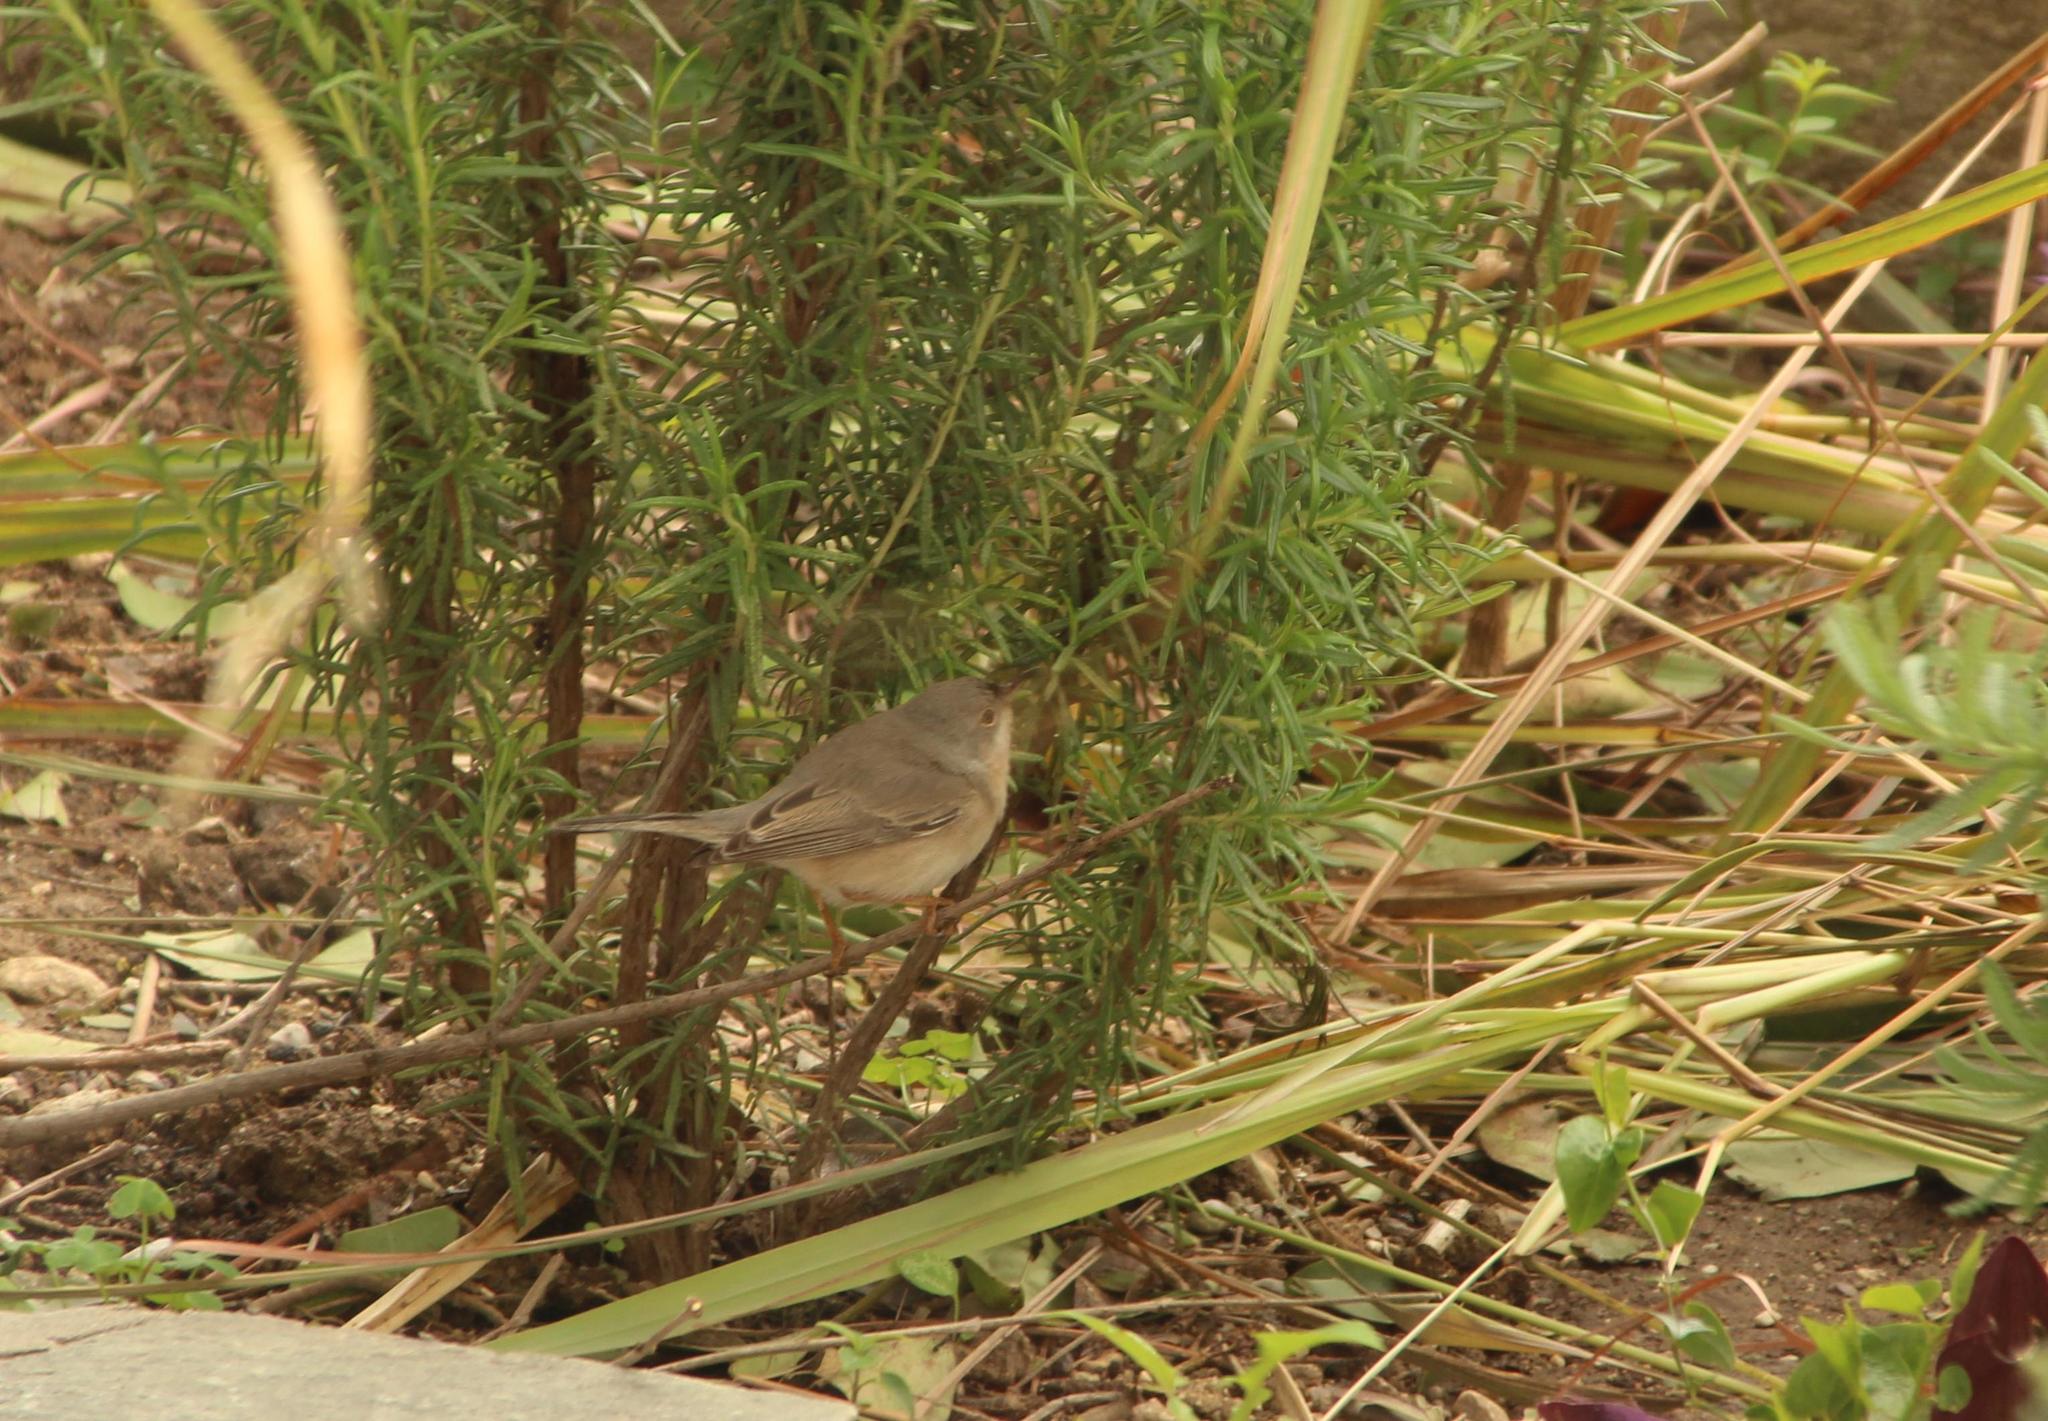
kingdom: Animalia
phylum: Chordata
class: Aves
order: Passeriformes
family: Sylviidae
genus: Curruca
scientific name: Curruca cantillans
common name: Subalpine warbler
